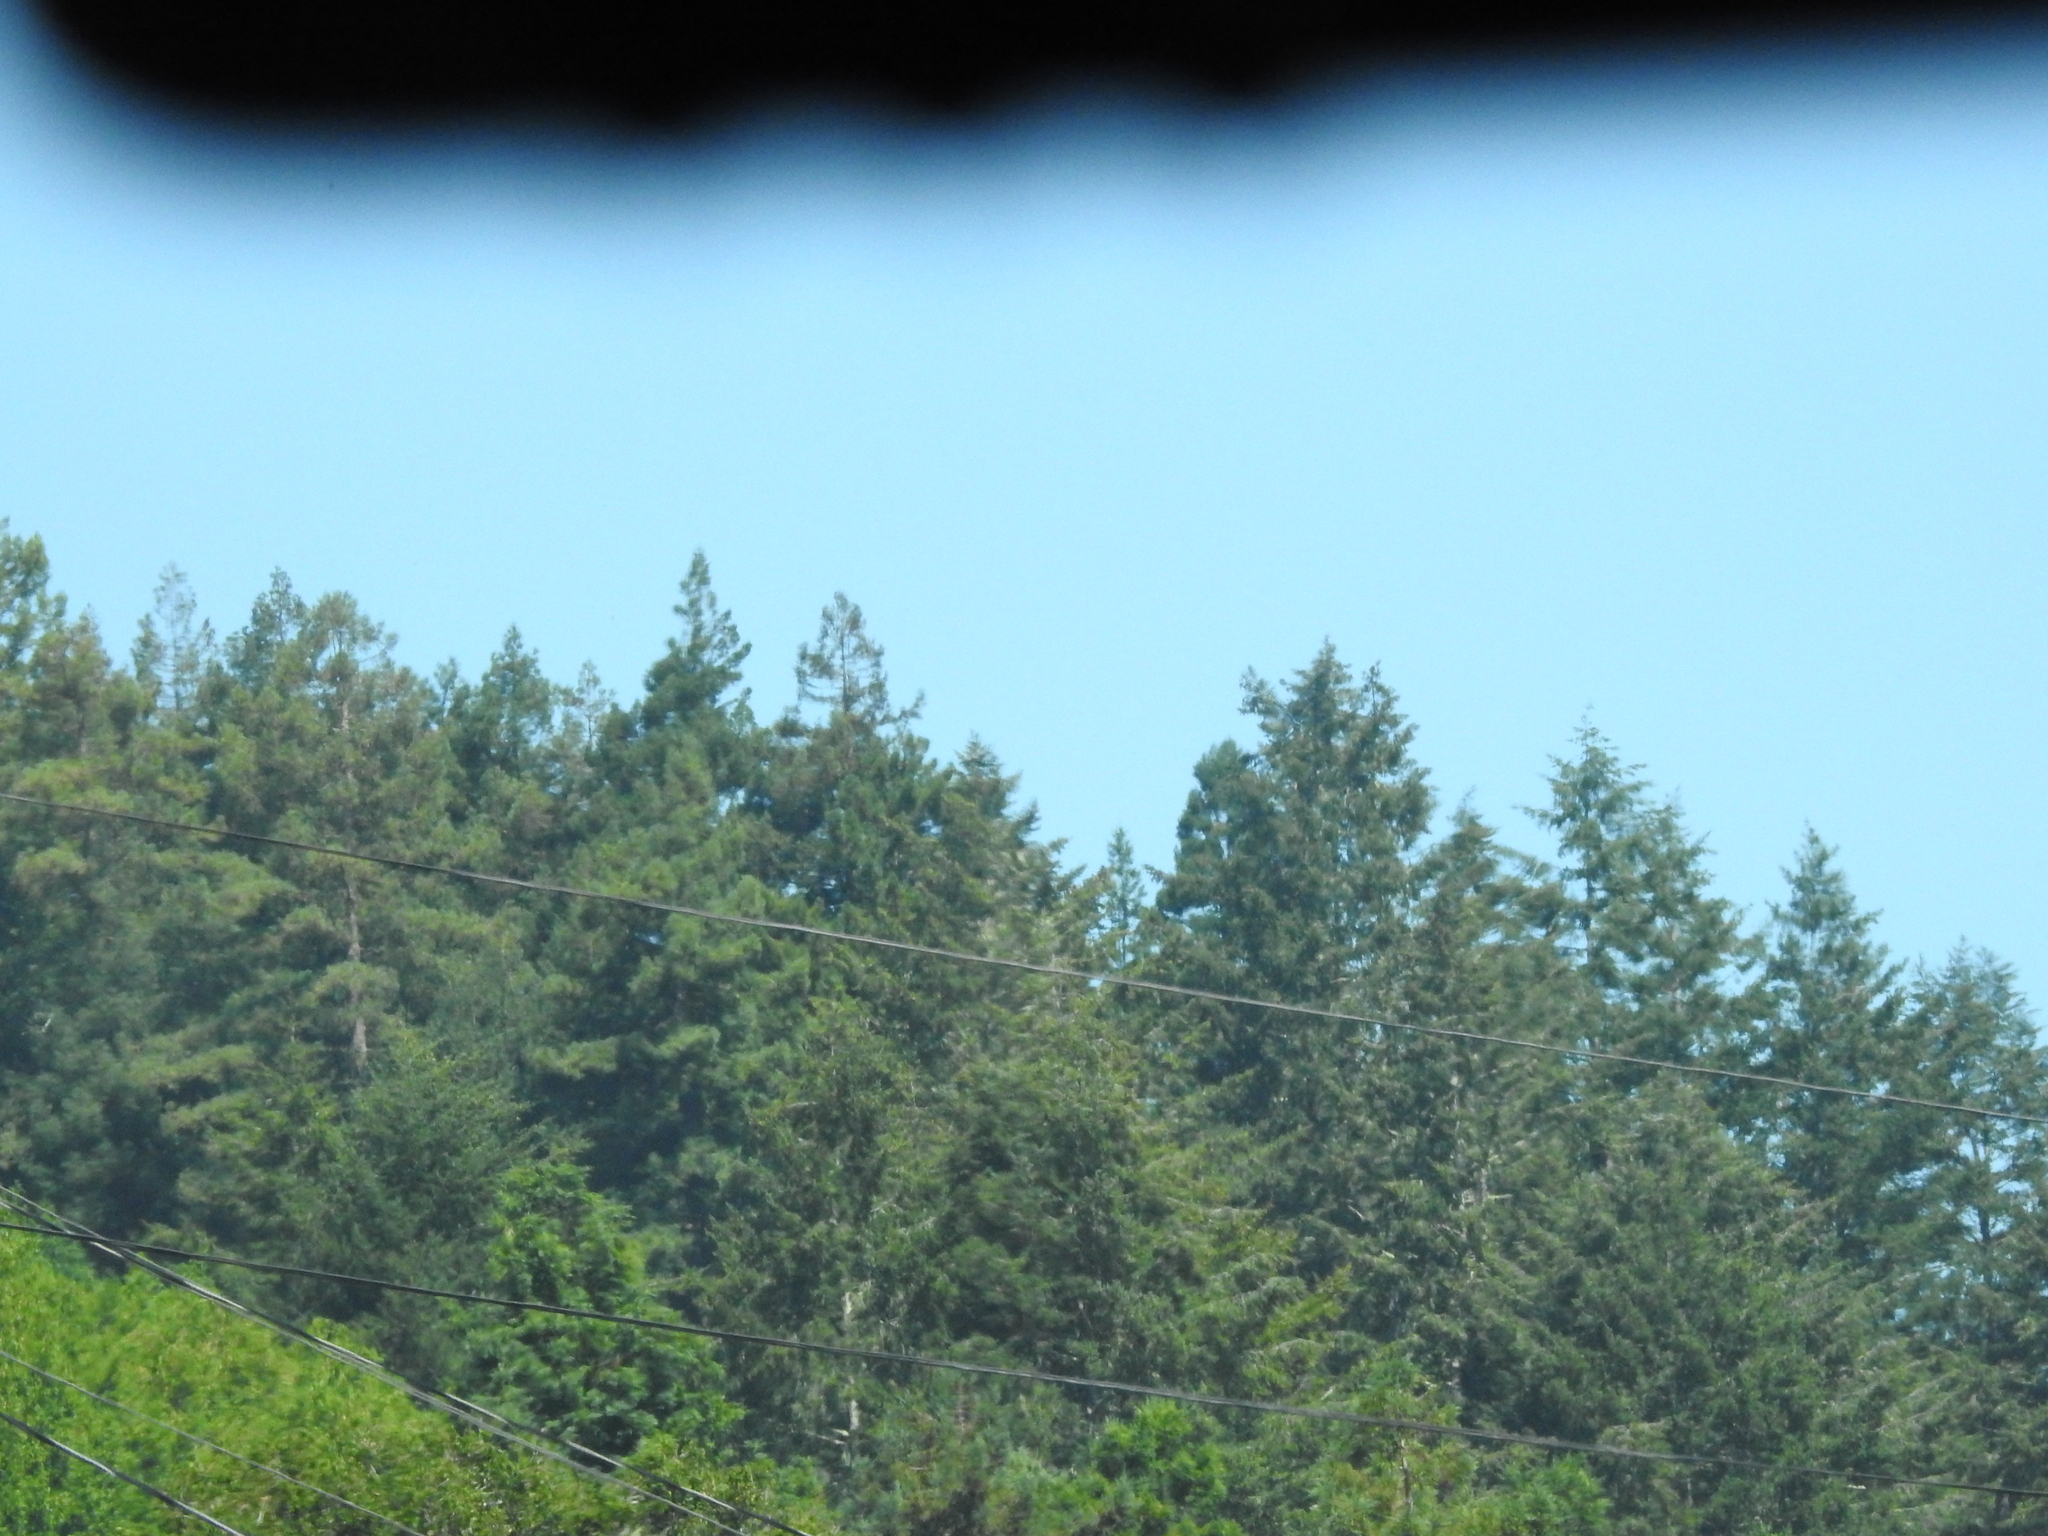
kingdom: Plantae
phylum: Tracheophyta
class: Pinopsida
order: Pinales
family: Pinaceae
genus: Pseudotsuga
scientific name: Pseudotsuga menziesii
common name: Douglas fir
